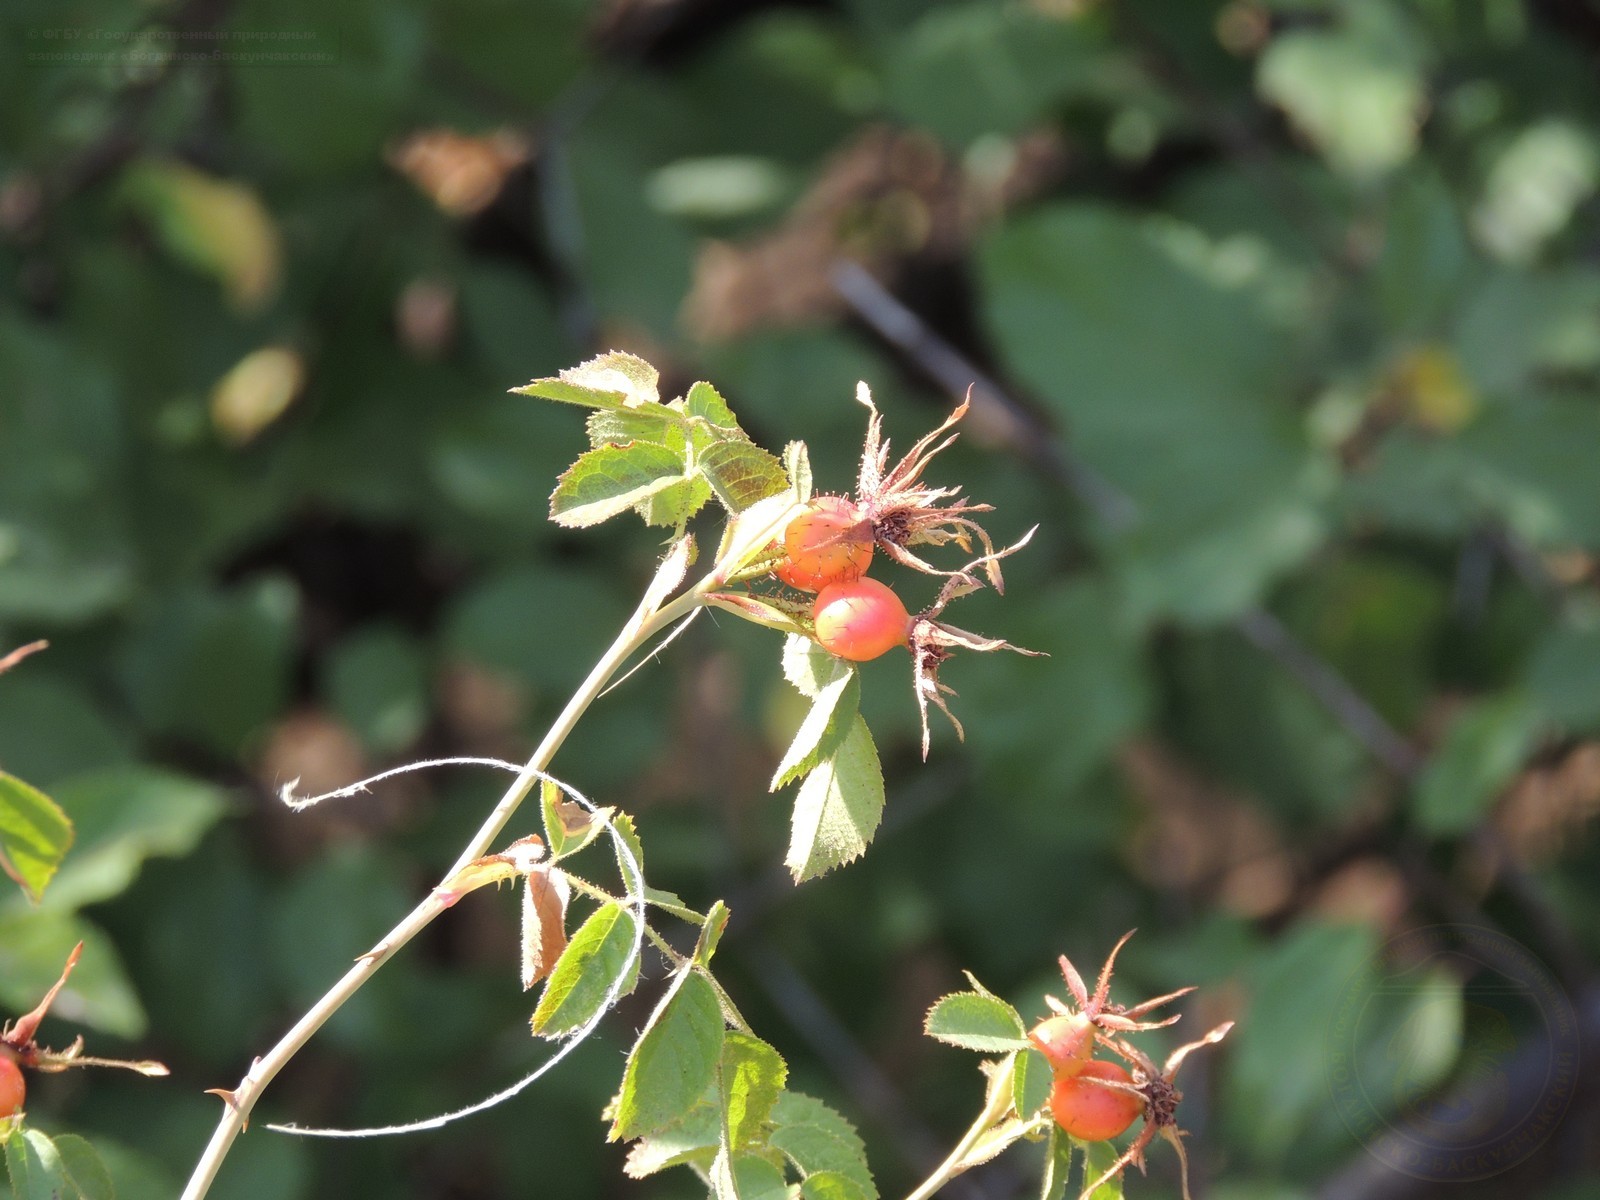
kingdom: Plantae
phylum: Tracheophyta
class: Magnoliopsida
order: Rosales
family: Rosaceae
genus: Rosa
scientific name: Rosa rubiginosa
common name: Sweet-briar
